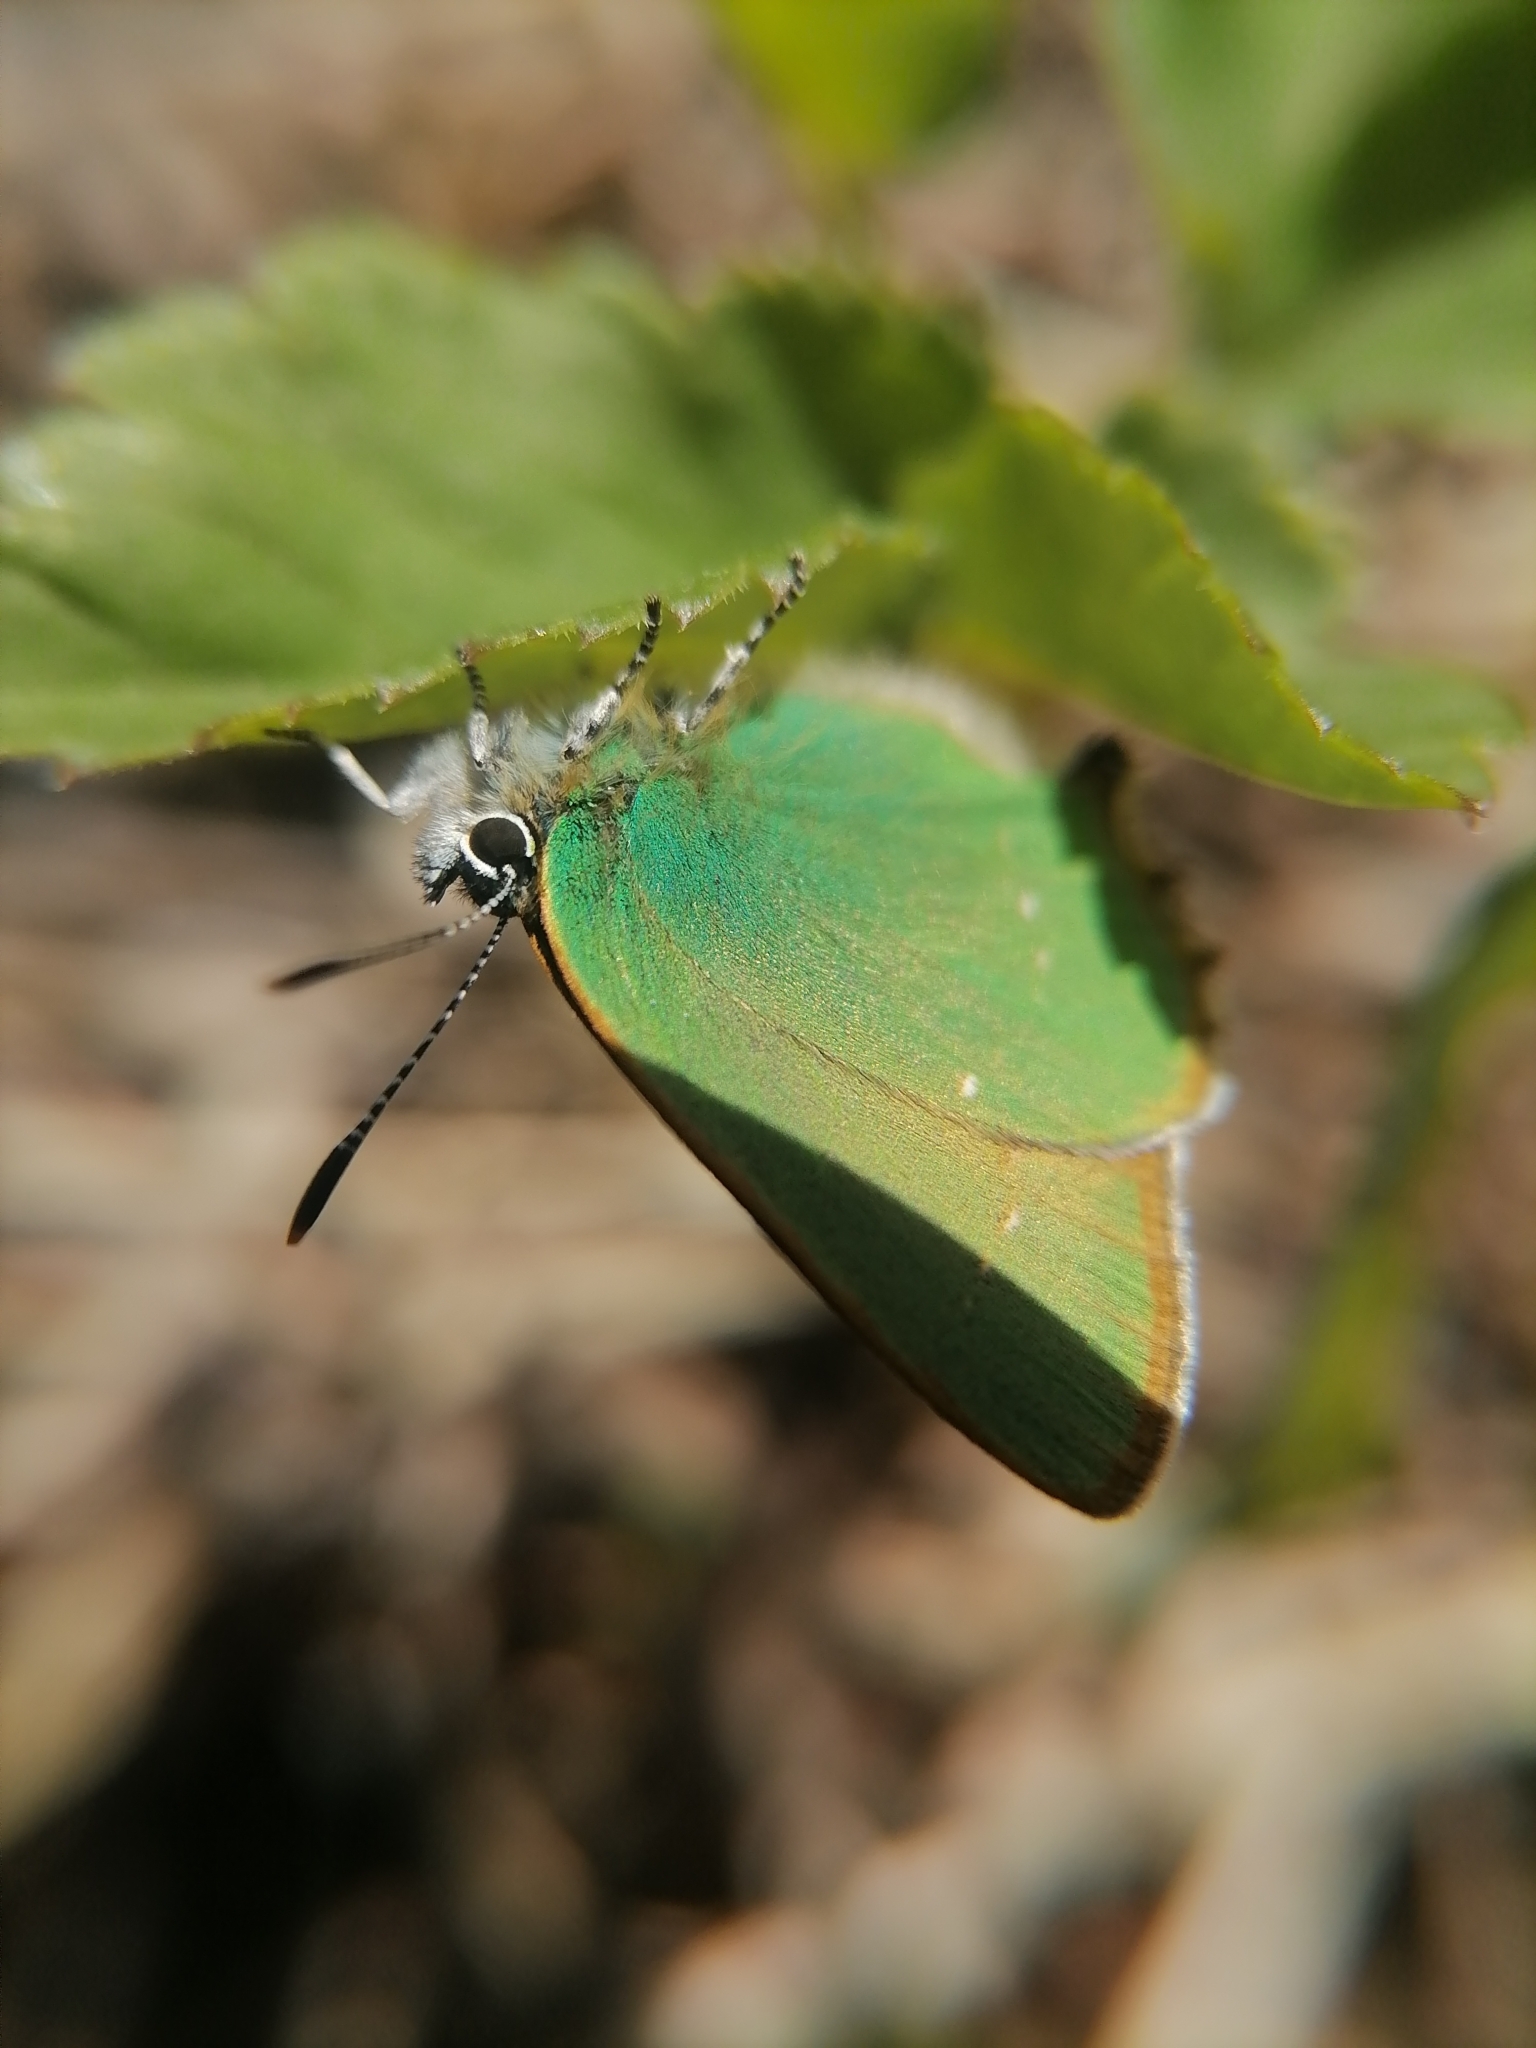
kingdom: Animalia
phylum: Arthropoda
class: Insecta
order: Lepidoptera
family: Lycaenidae
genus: Callophrys
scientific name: Callophrys rubi
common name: Green hairstreak
